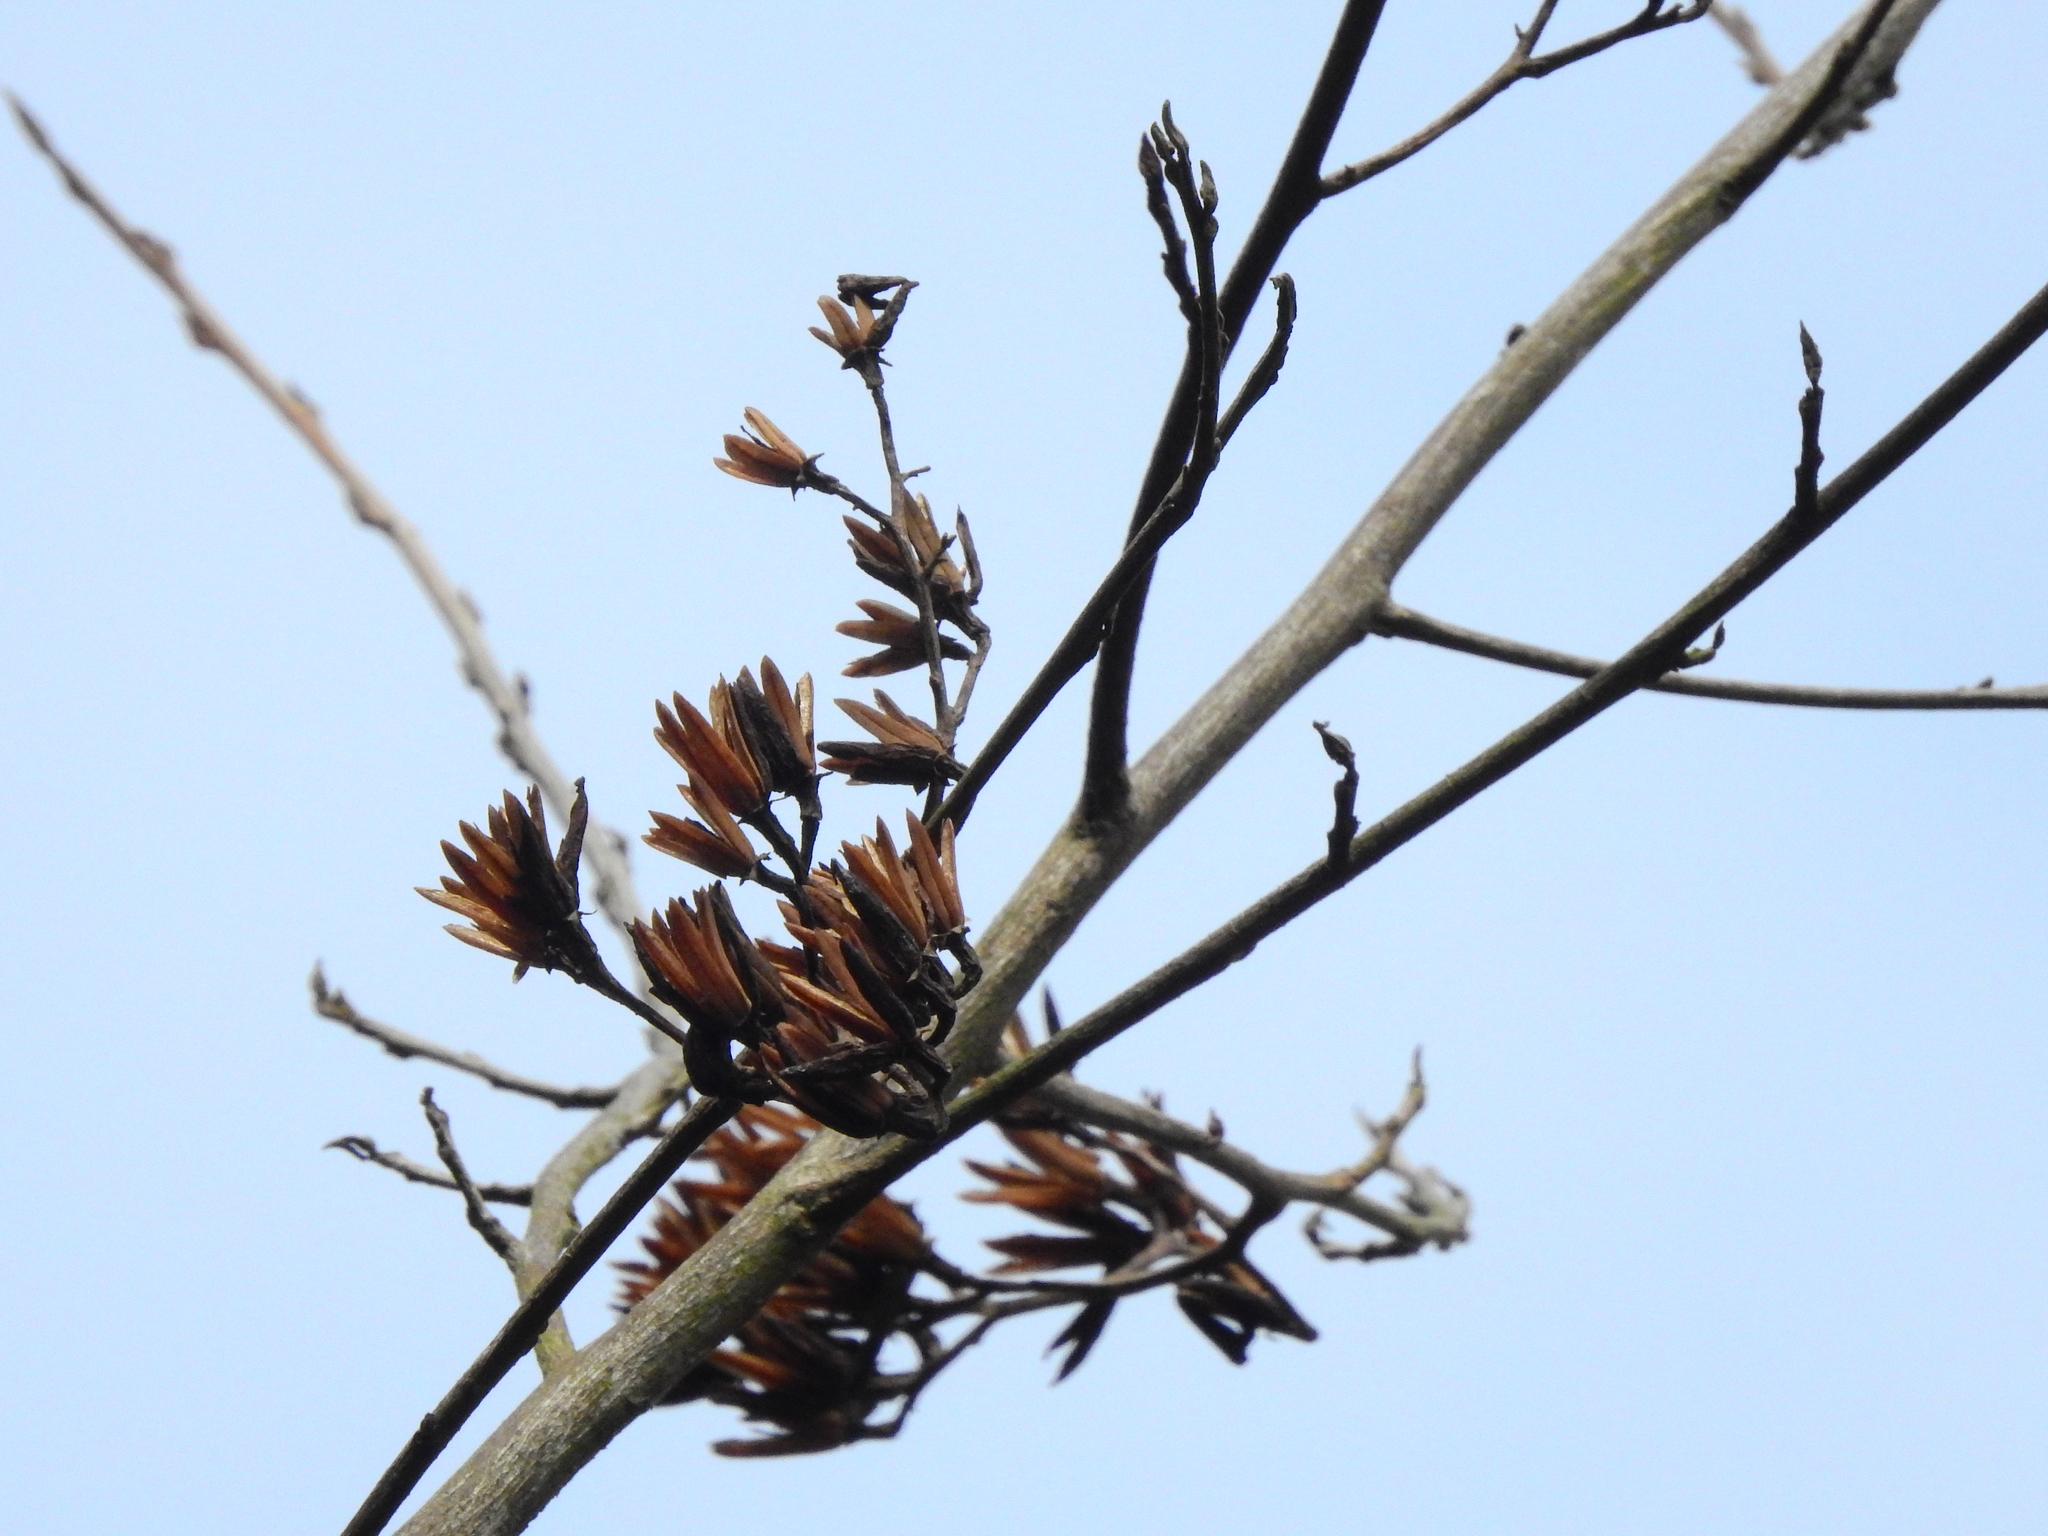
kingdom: Plantae
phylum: Tracheophyta
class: Magnoliopsida
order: Ericales
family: Styracaceae
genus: Alniphyllum
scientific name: Alniphyllum pterospermum
